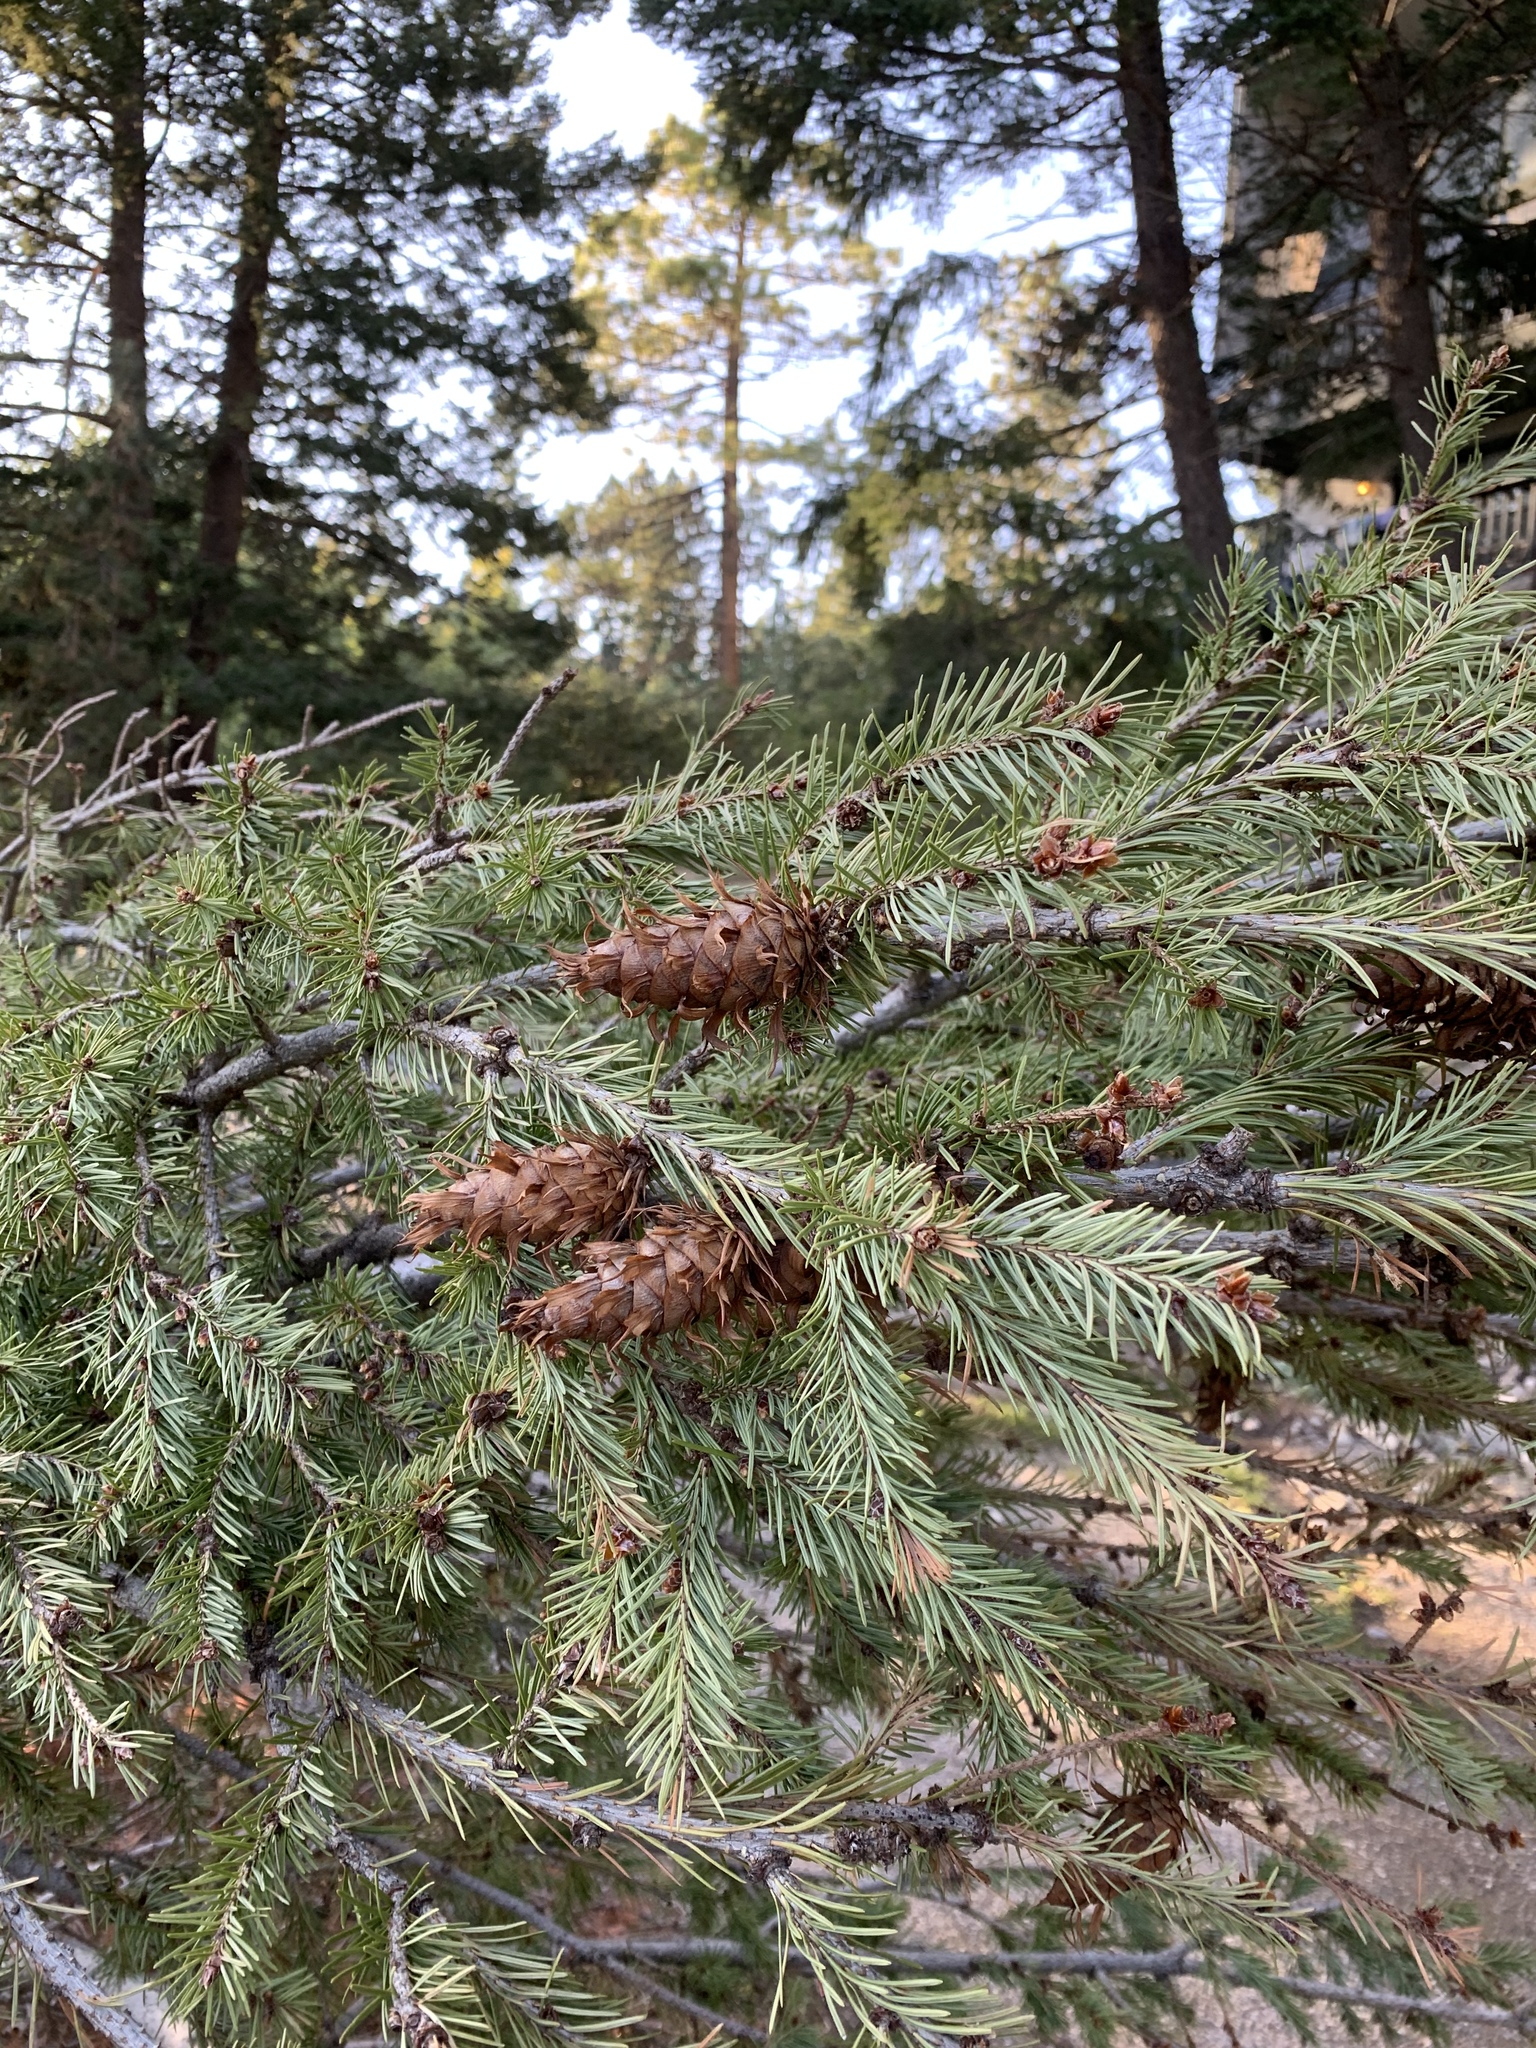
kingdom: Plantae
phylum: Tracheophyta
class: Pinopsida
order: Pinales
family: Pinaceae
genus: Pseudotsuga
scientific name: Pseudotsuga menziesii
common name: Douglas fir
